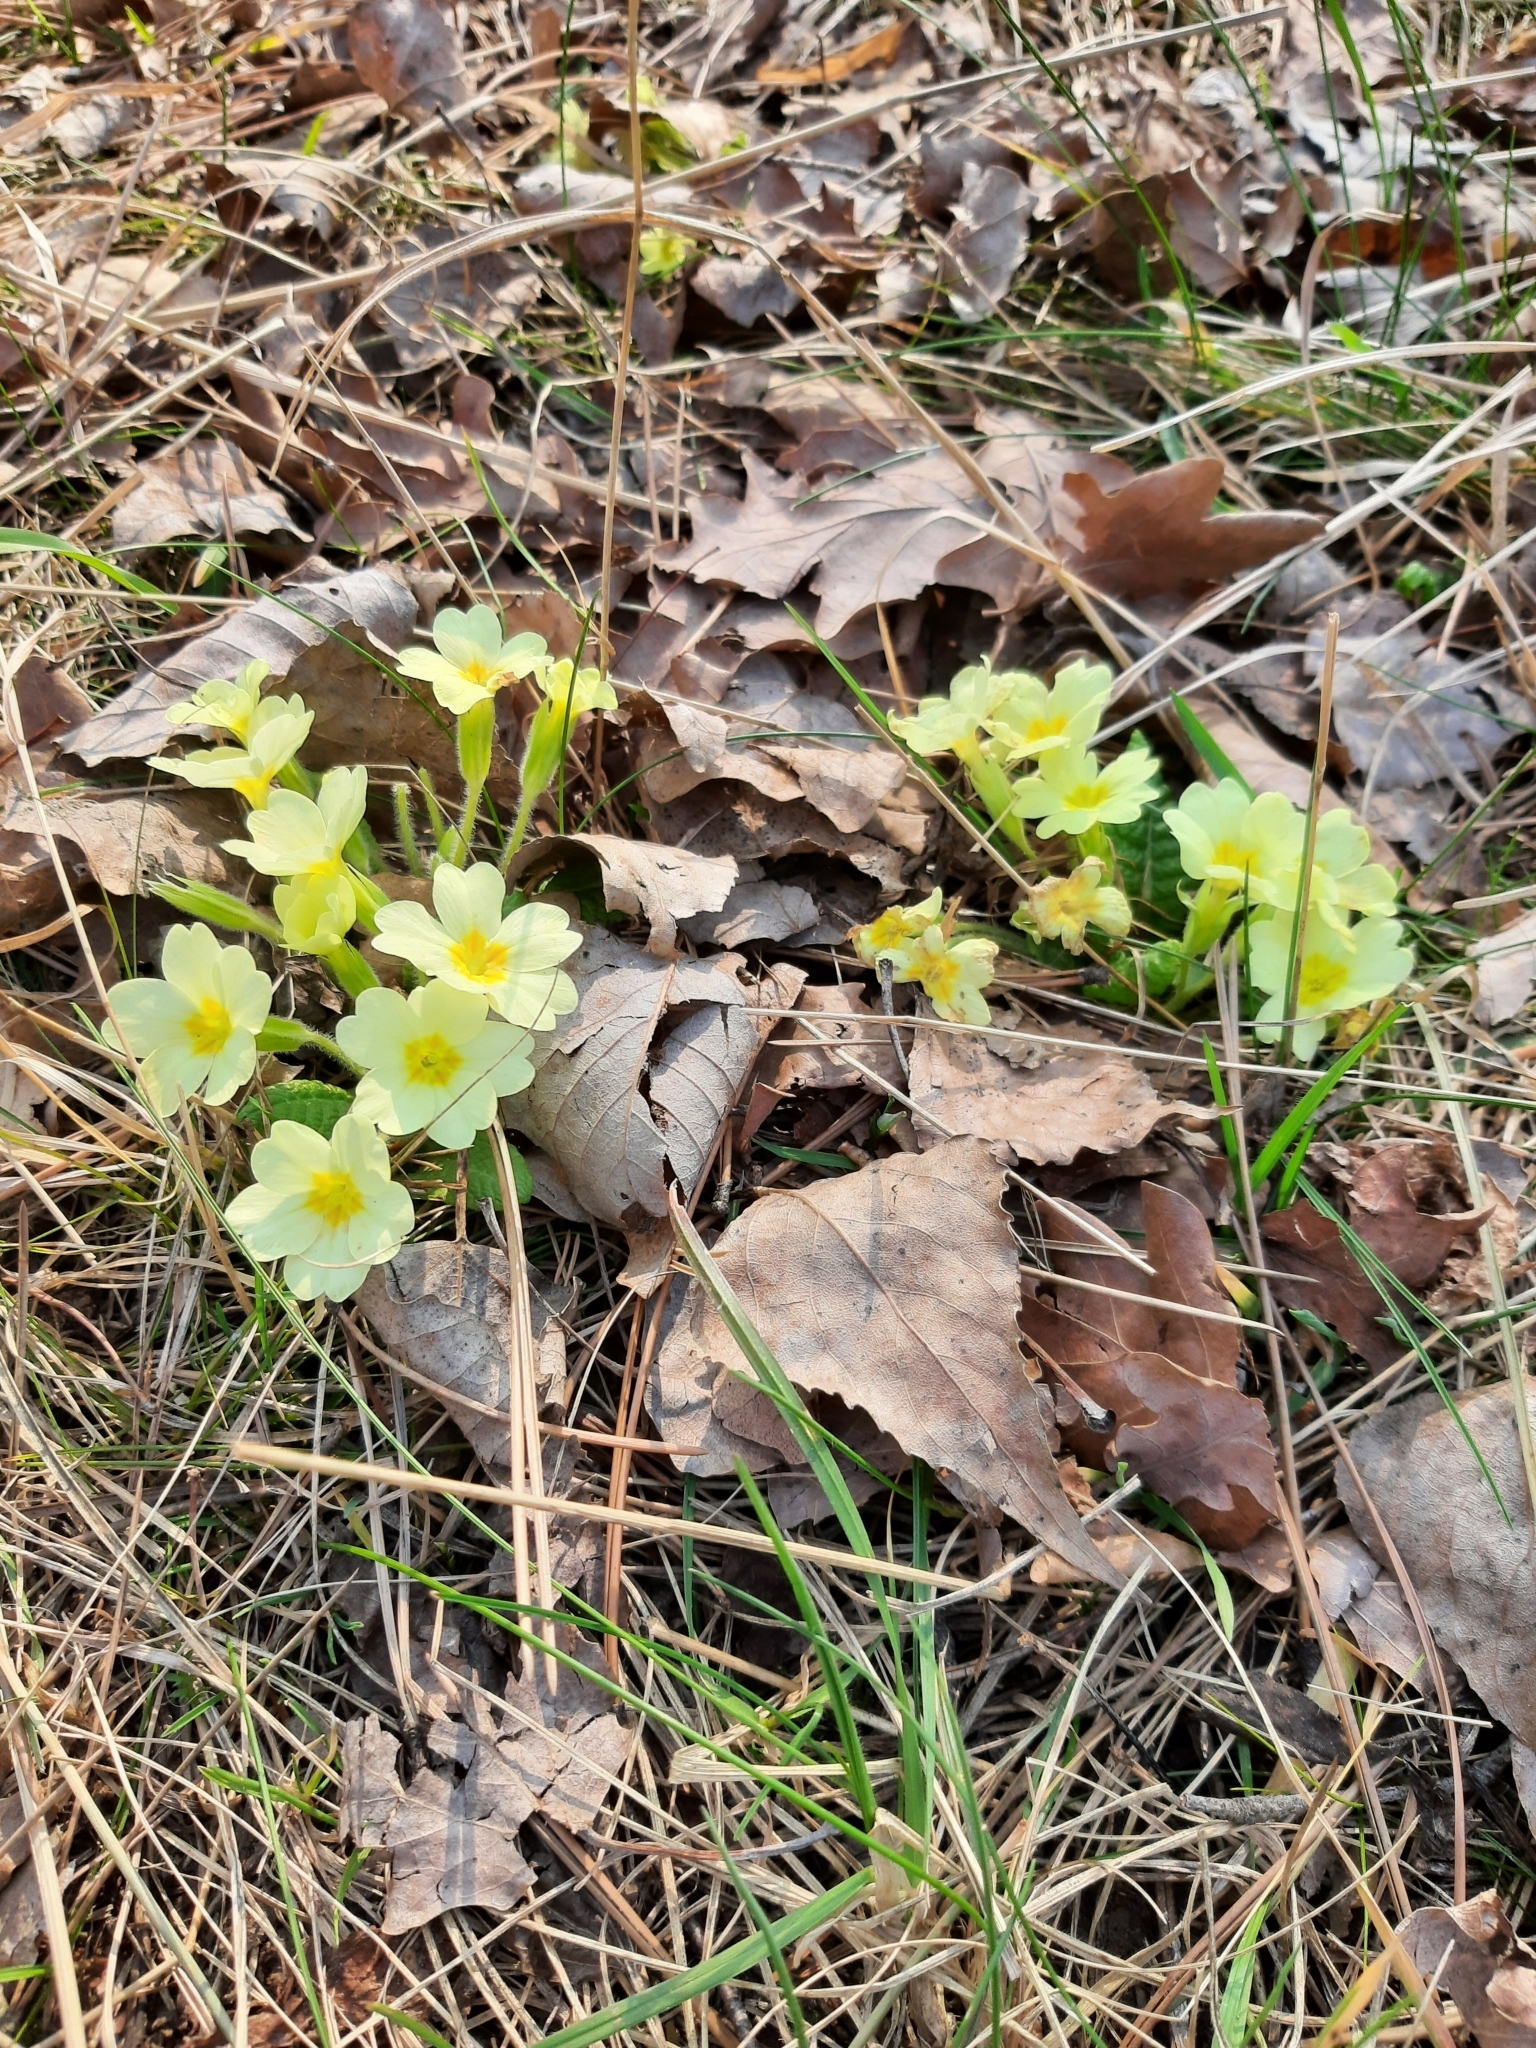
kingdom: Plantae
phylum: Tracheophyta
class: Magnoliopsida
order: Ericales
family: Primulaceae
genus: Primula
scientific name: Primula vulgaris
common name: Primrose
